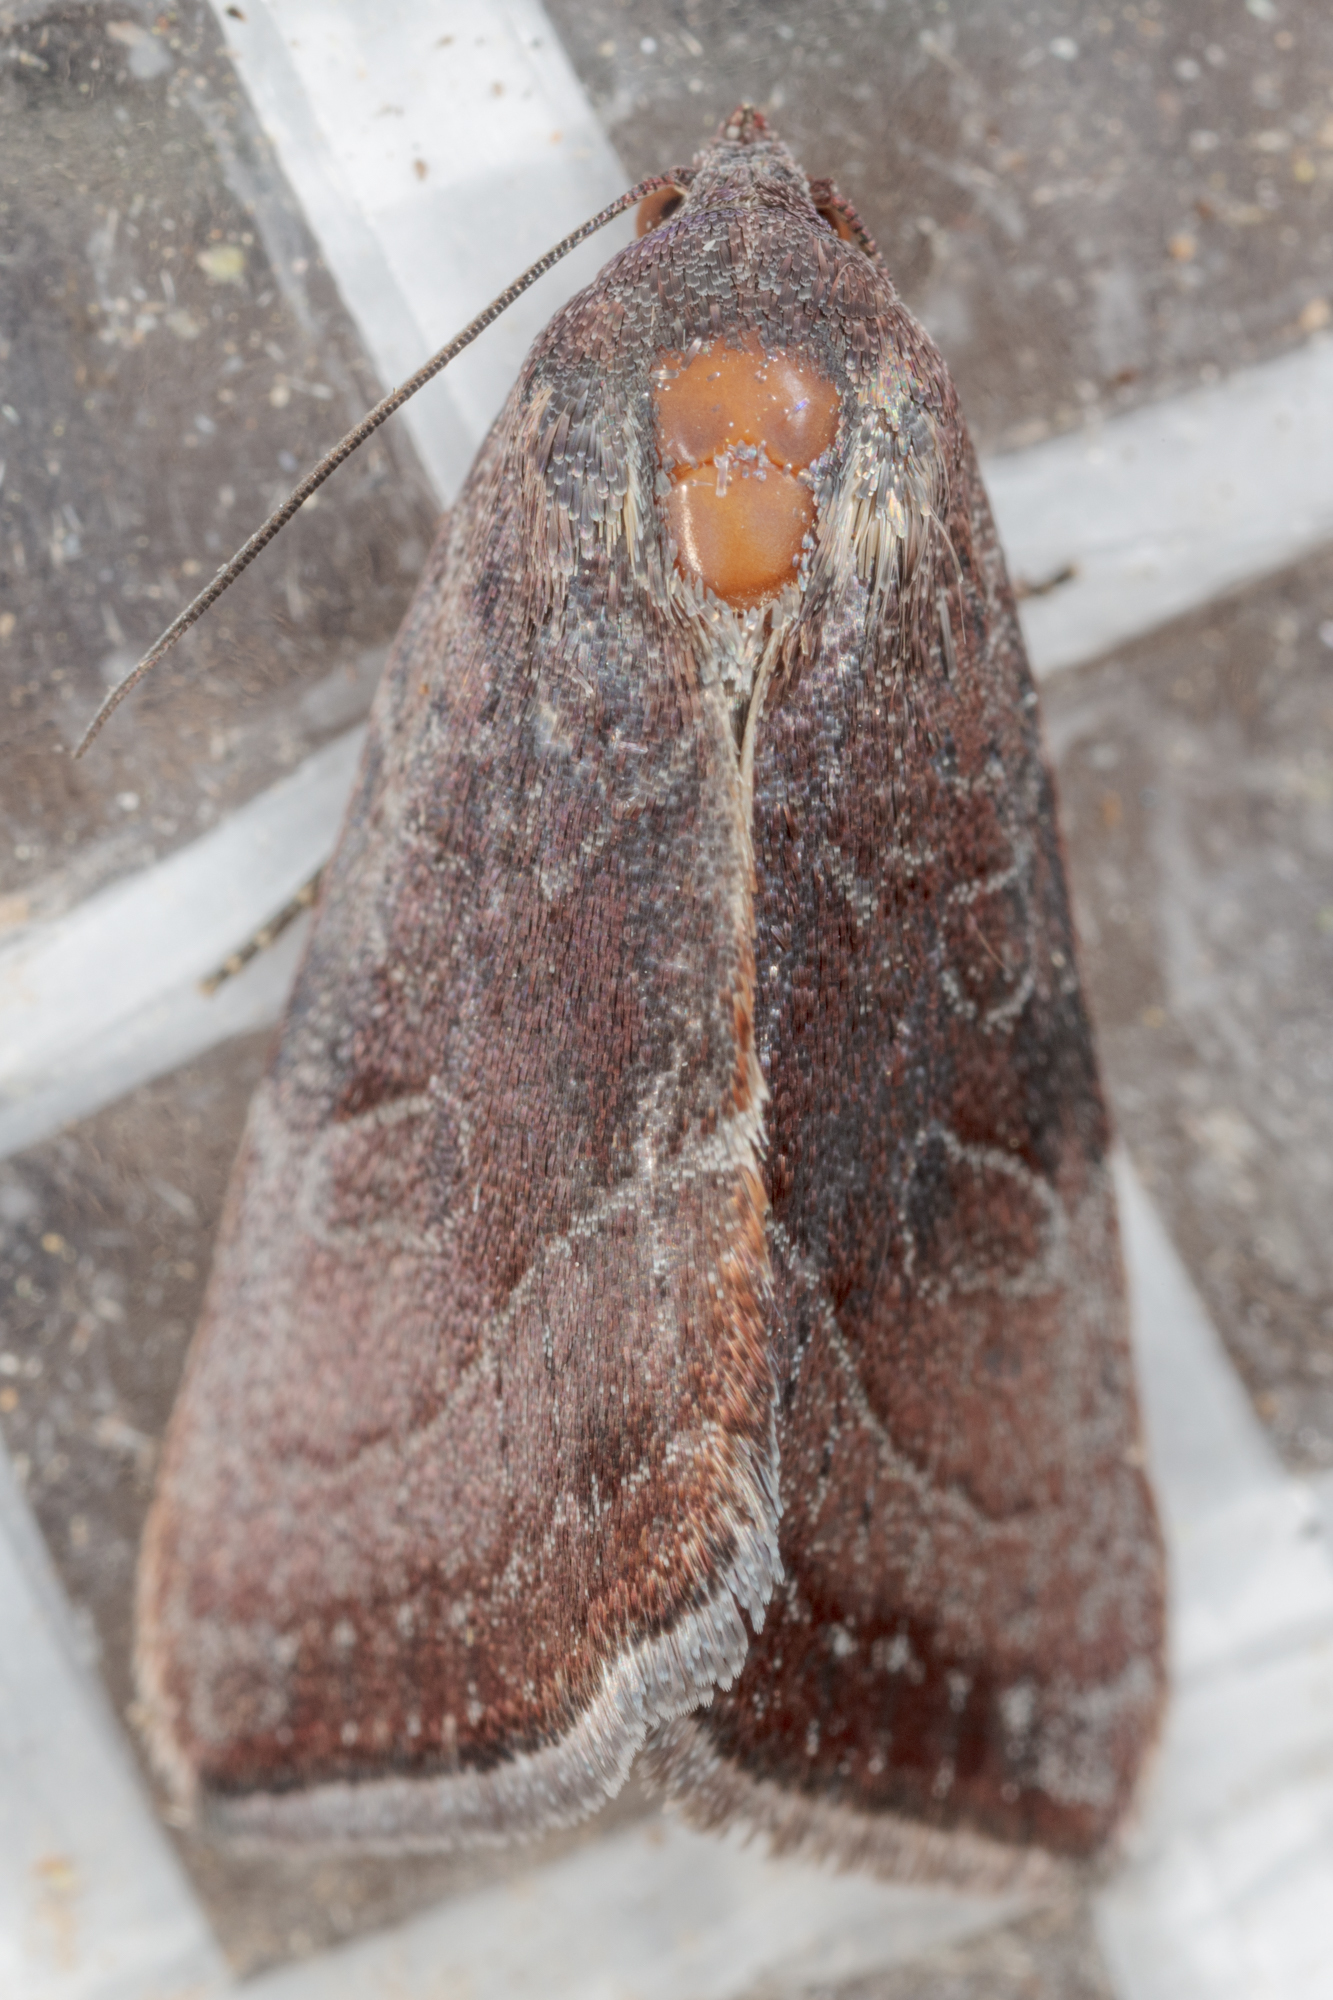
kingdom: Animalia
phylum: Arthropoda
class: Insecta
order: Lepidoptera
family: Noctuidae
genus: Galgula
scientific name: Galgula partita
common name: Wedgeling
